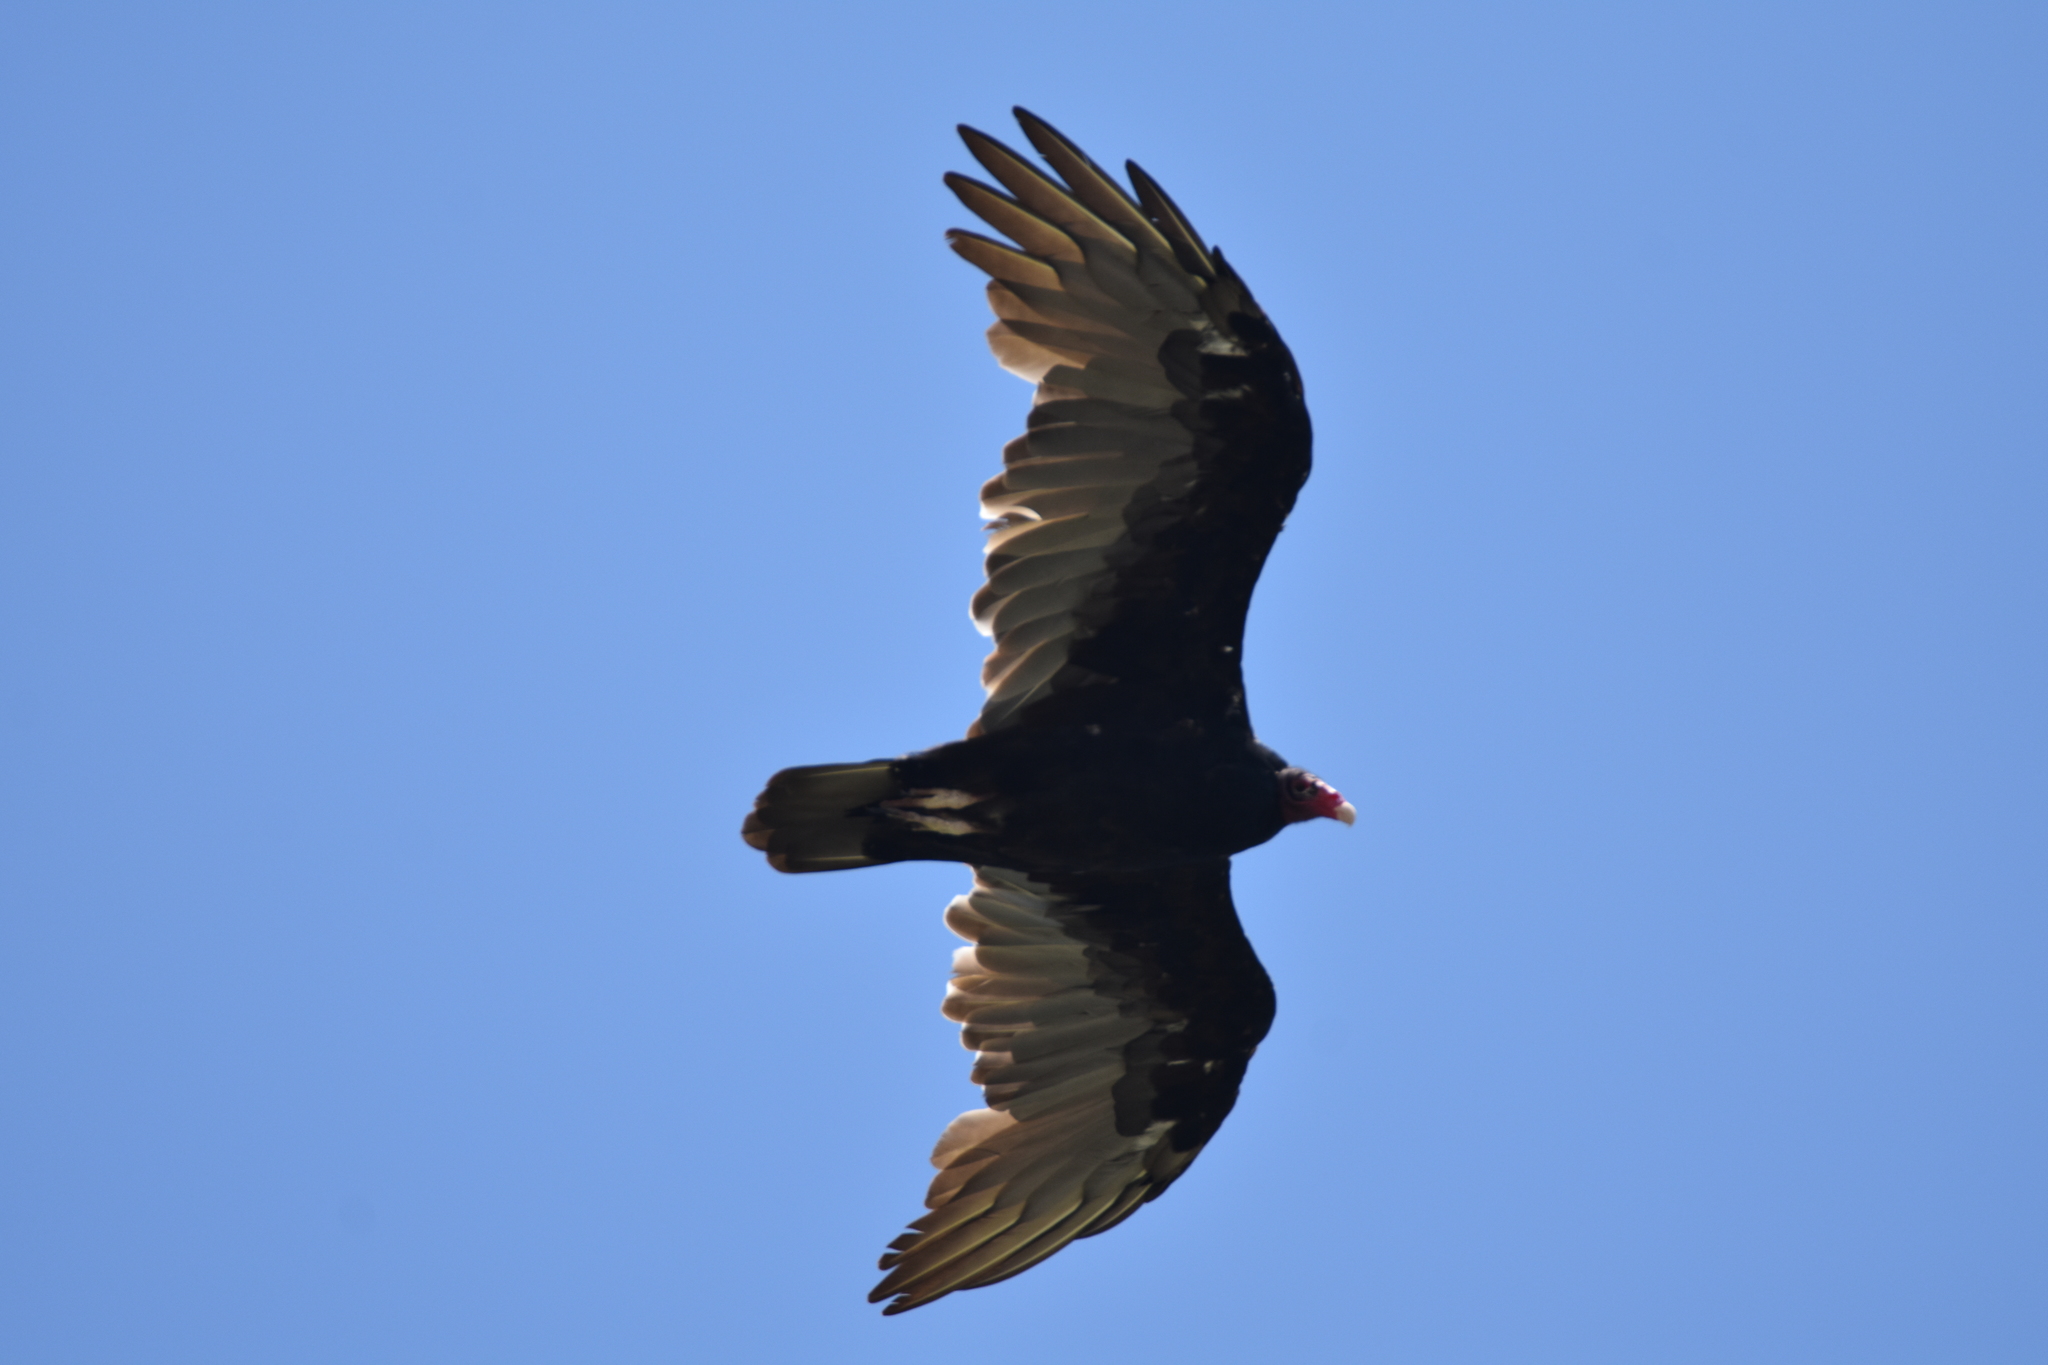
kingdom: Animalia
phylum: Chordata
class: Aves
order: Accipitriformes
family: Cathartidae
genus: Cathartes
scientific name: Cathartes aura
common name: Turkey vulture
